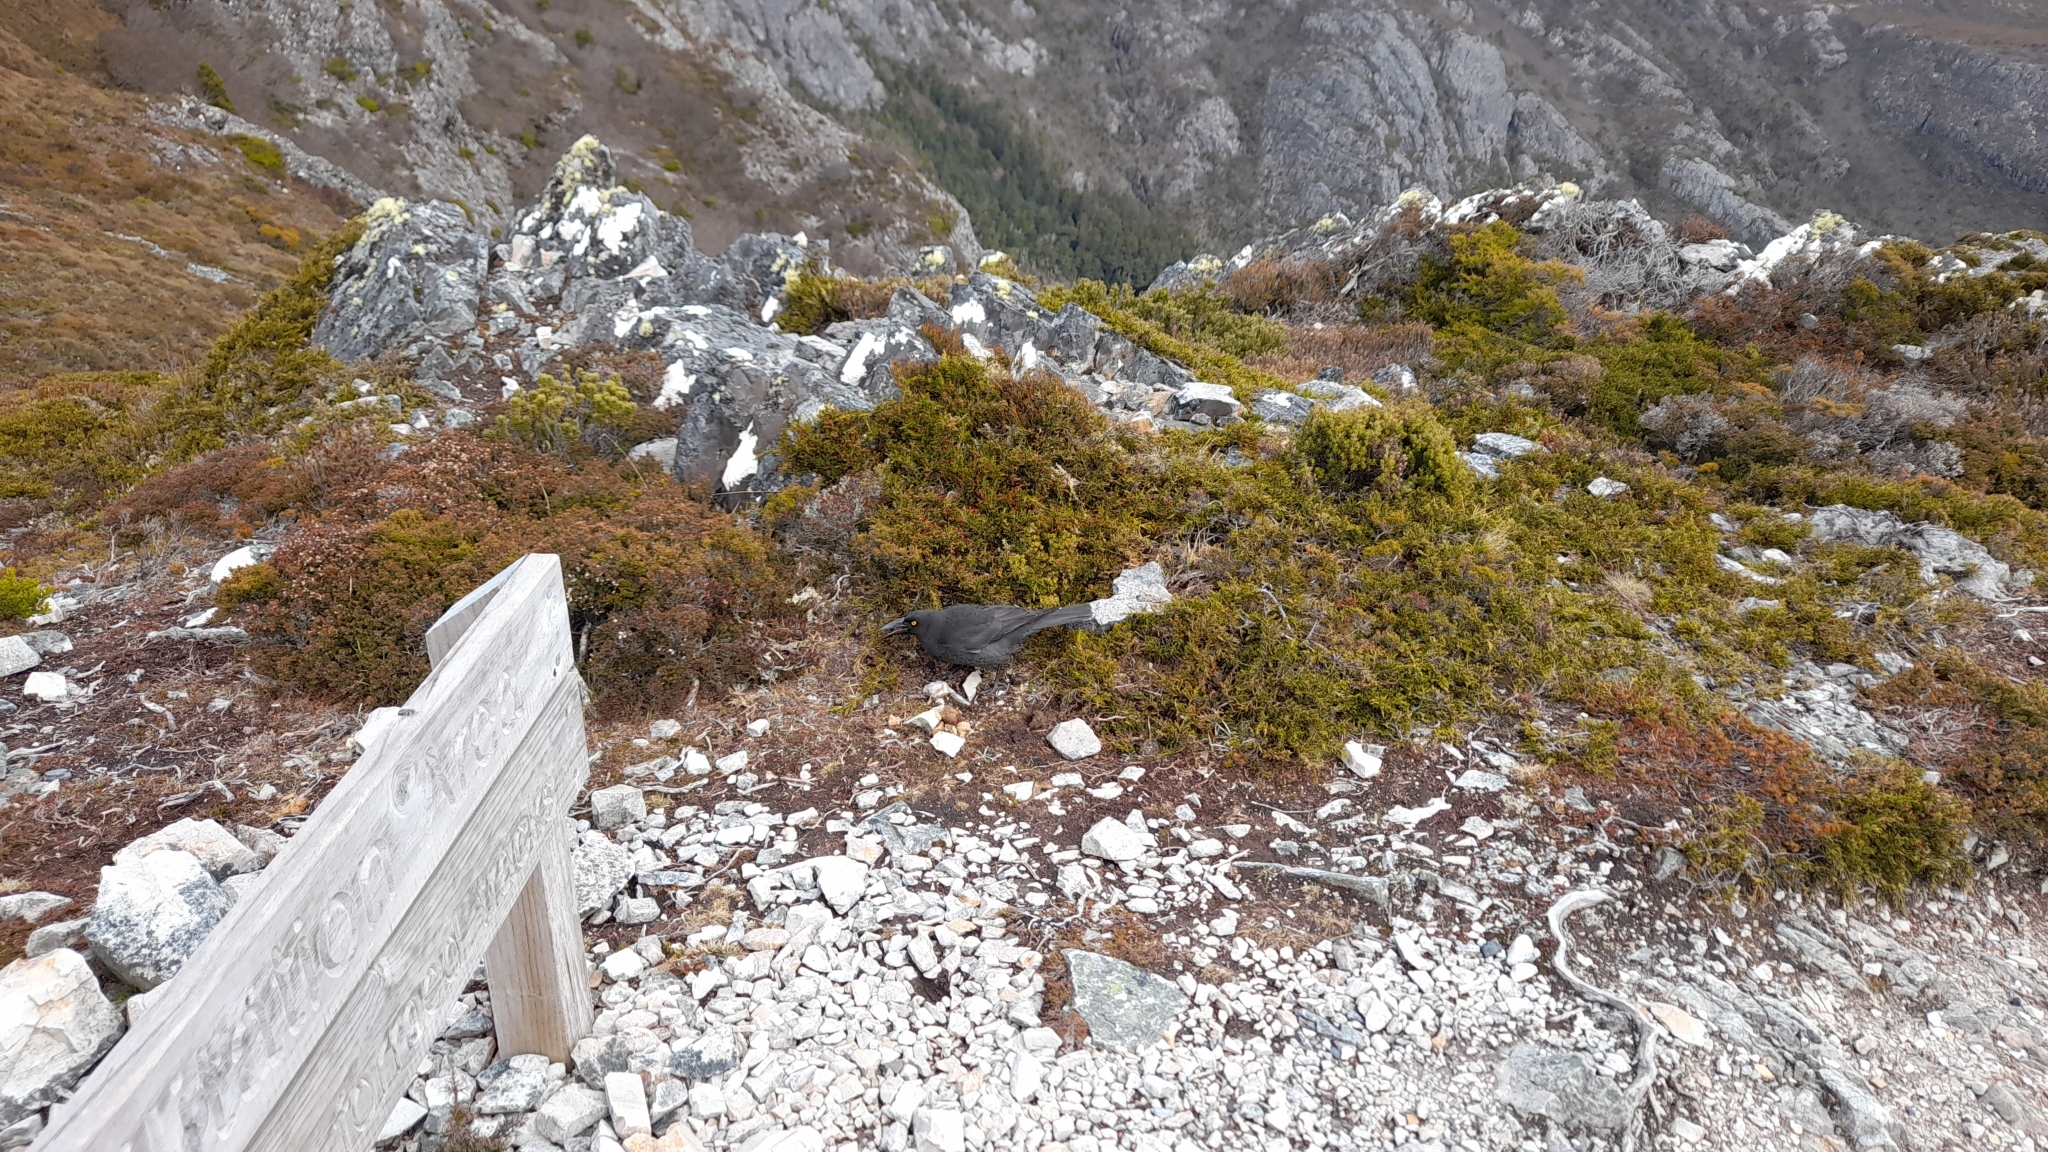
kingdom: Animalia
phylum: Chordata
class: Aves
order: Passeriformes
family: Cracticidae
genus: Strepera
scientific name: Strepera fuliginosa
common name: Black currawong
